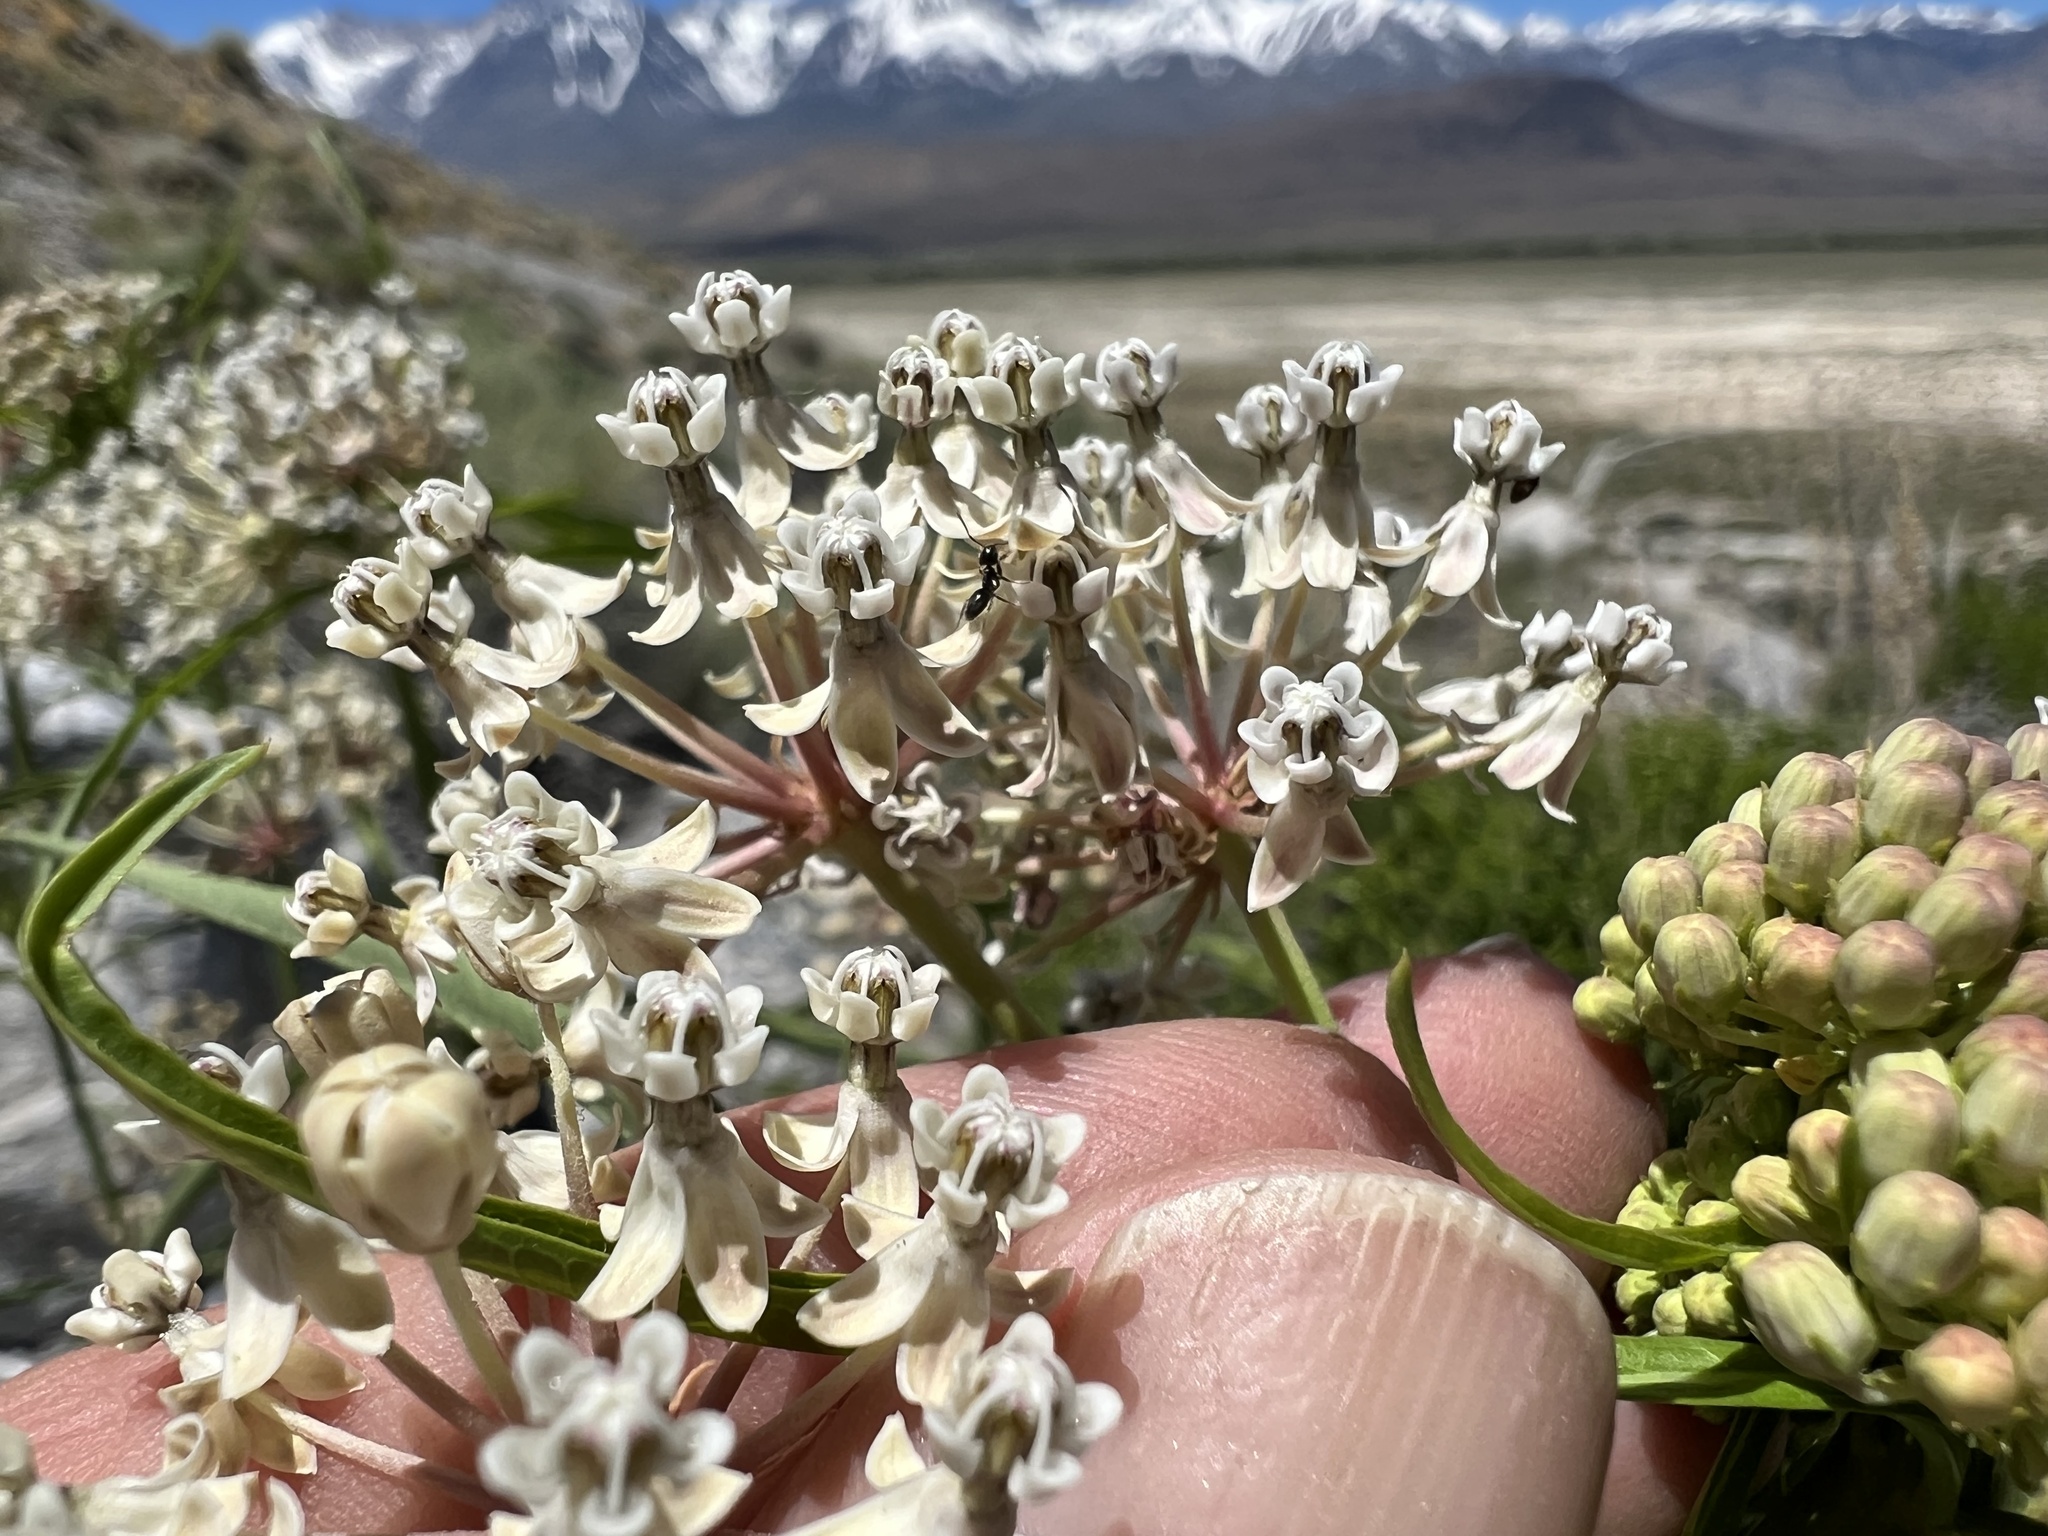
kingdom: Plantae
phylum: Tracheophyta
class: Magnoliopsida
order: Gentianales
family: Apocynaceae
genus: Asclepias
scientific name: Asclepias fascicularis
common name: Mexican milkweed
